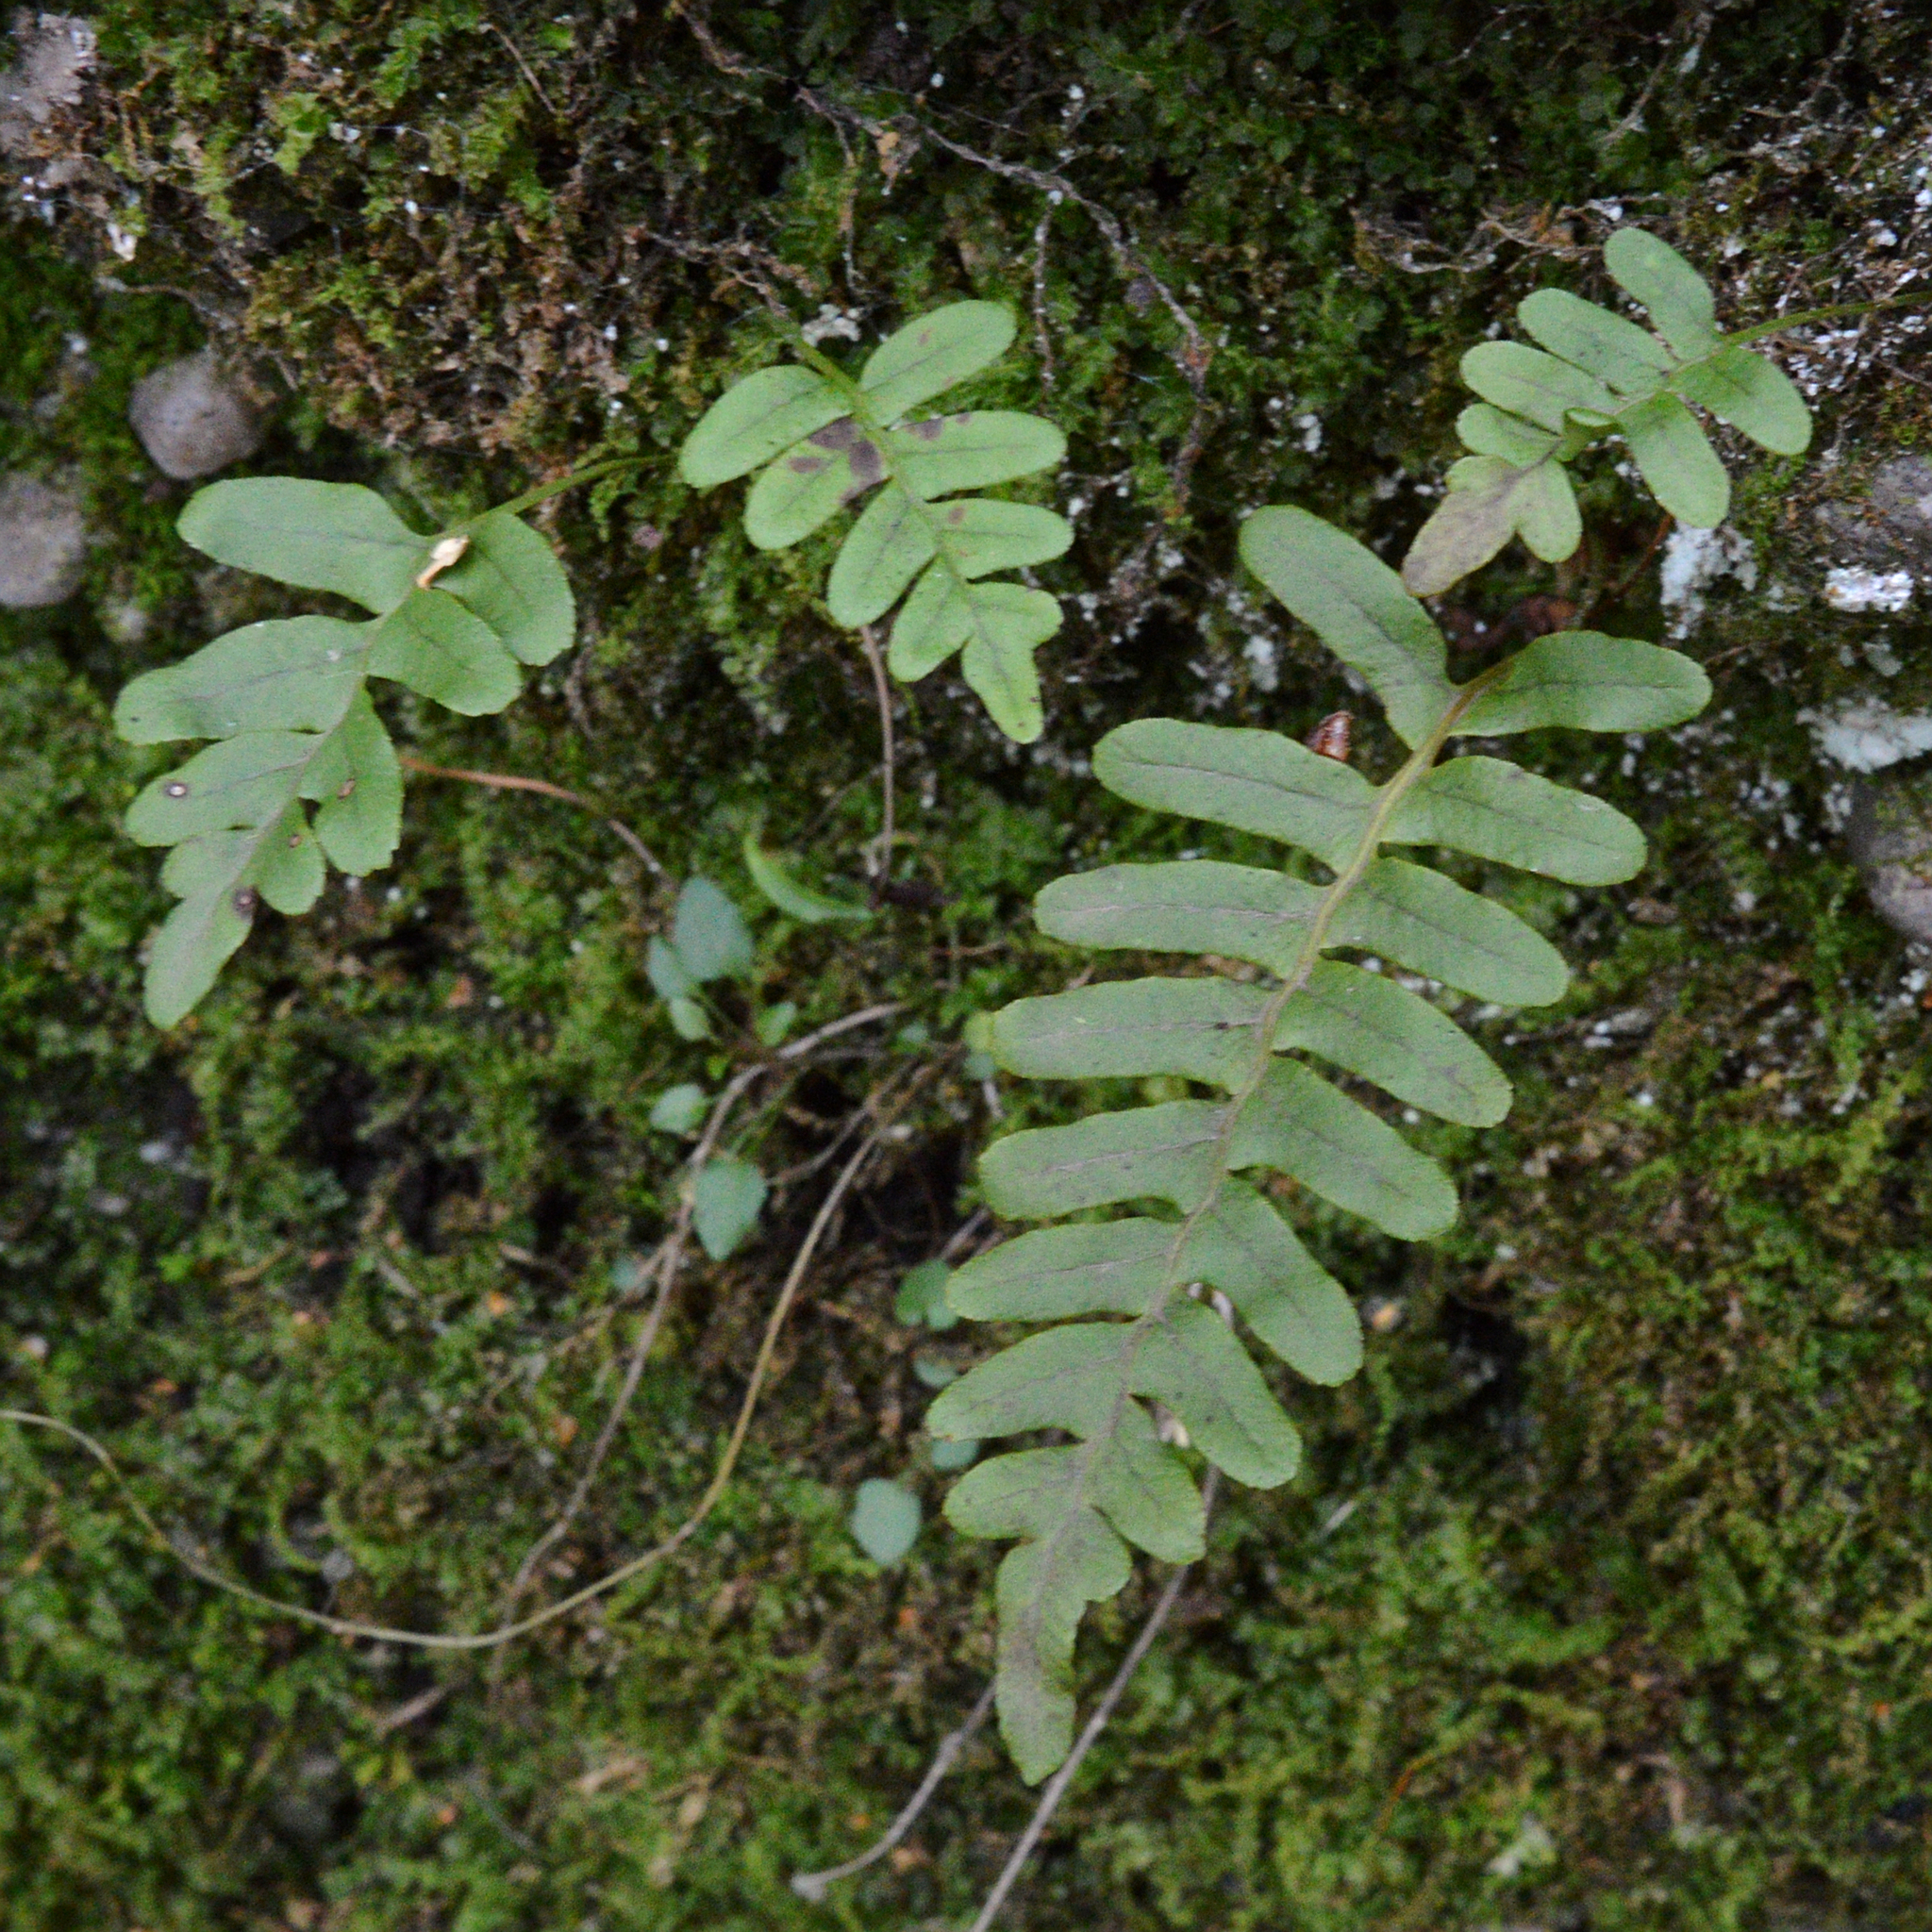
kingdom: Plantae
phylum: Tracheophyta
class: Polypodiopsida
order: Polypodiales
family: Polypodiaceae
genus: Polypodium
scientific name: Polypodium vulgare
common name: Common polypody
